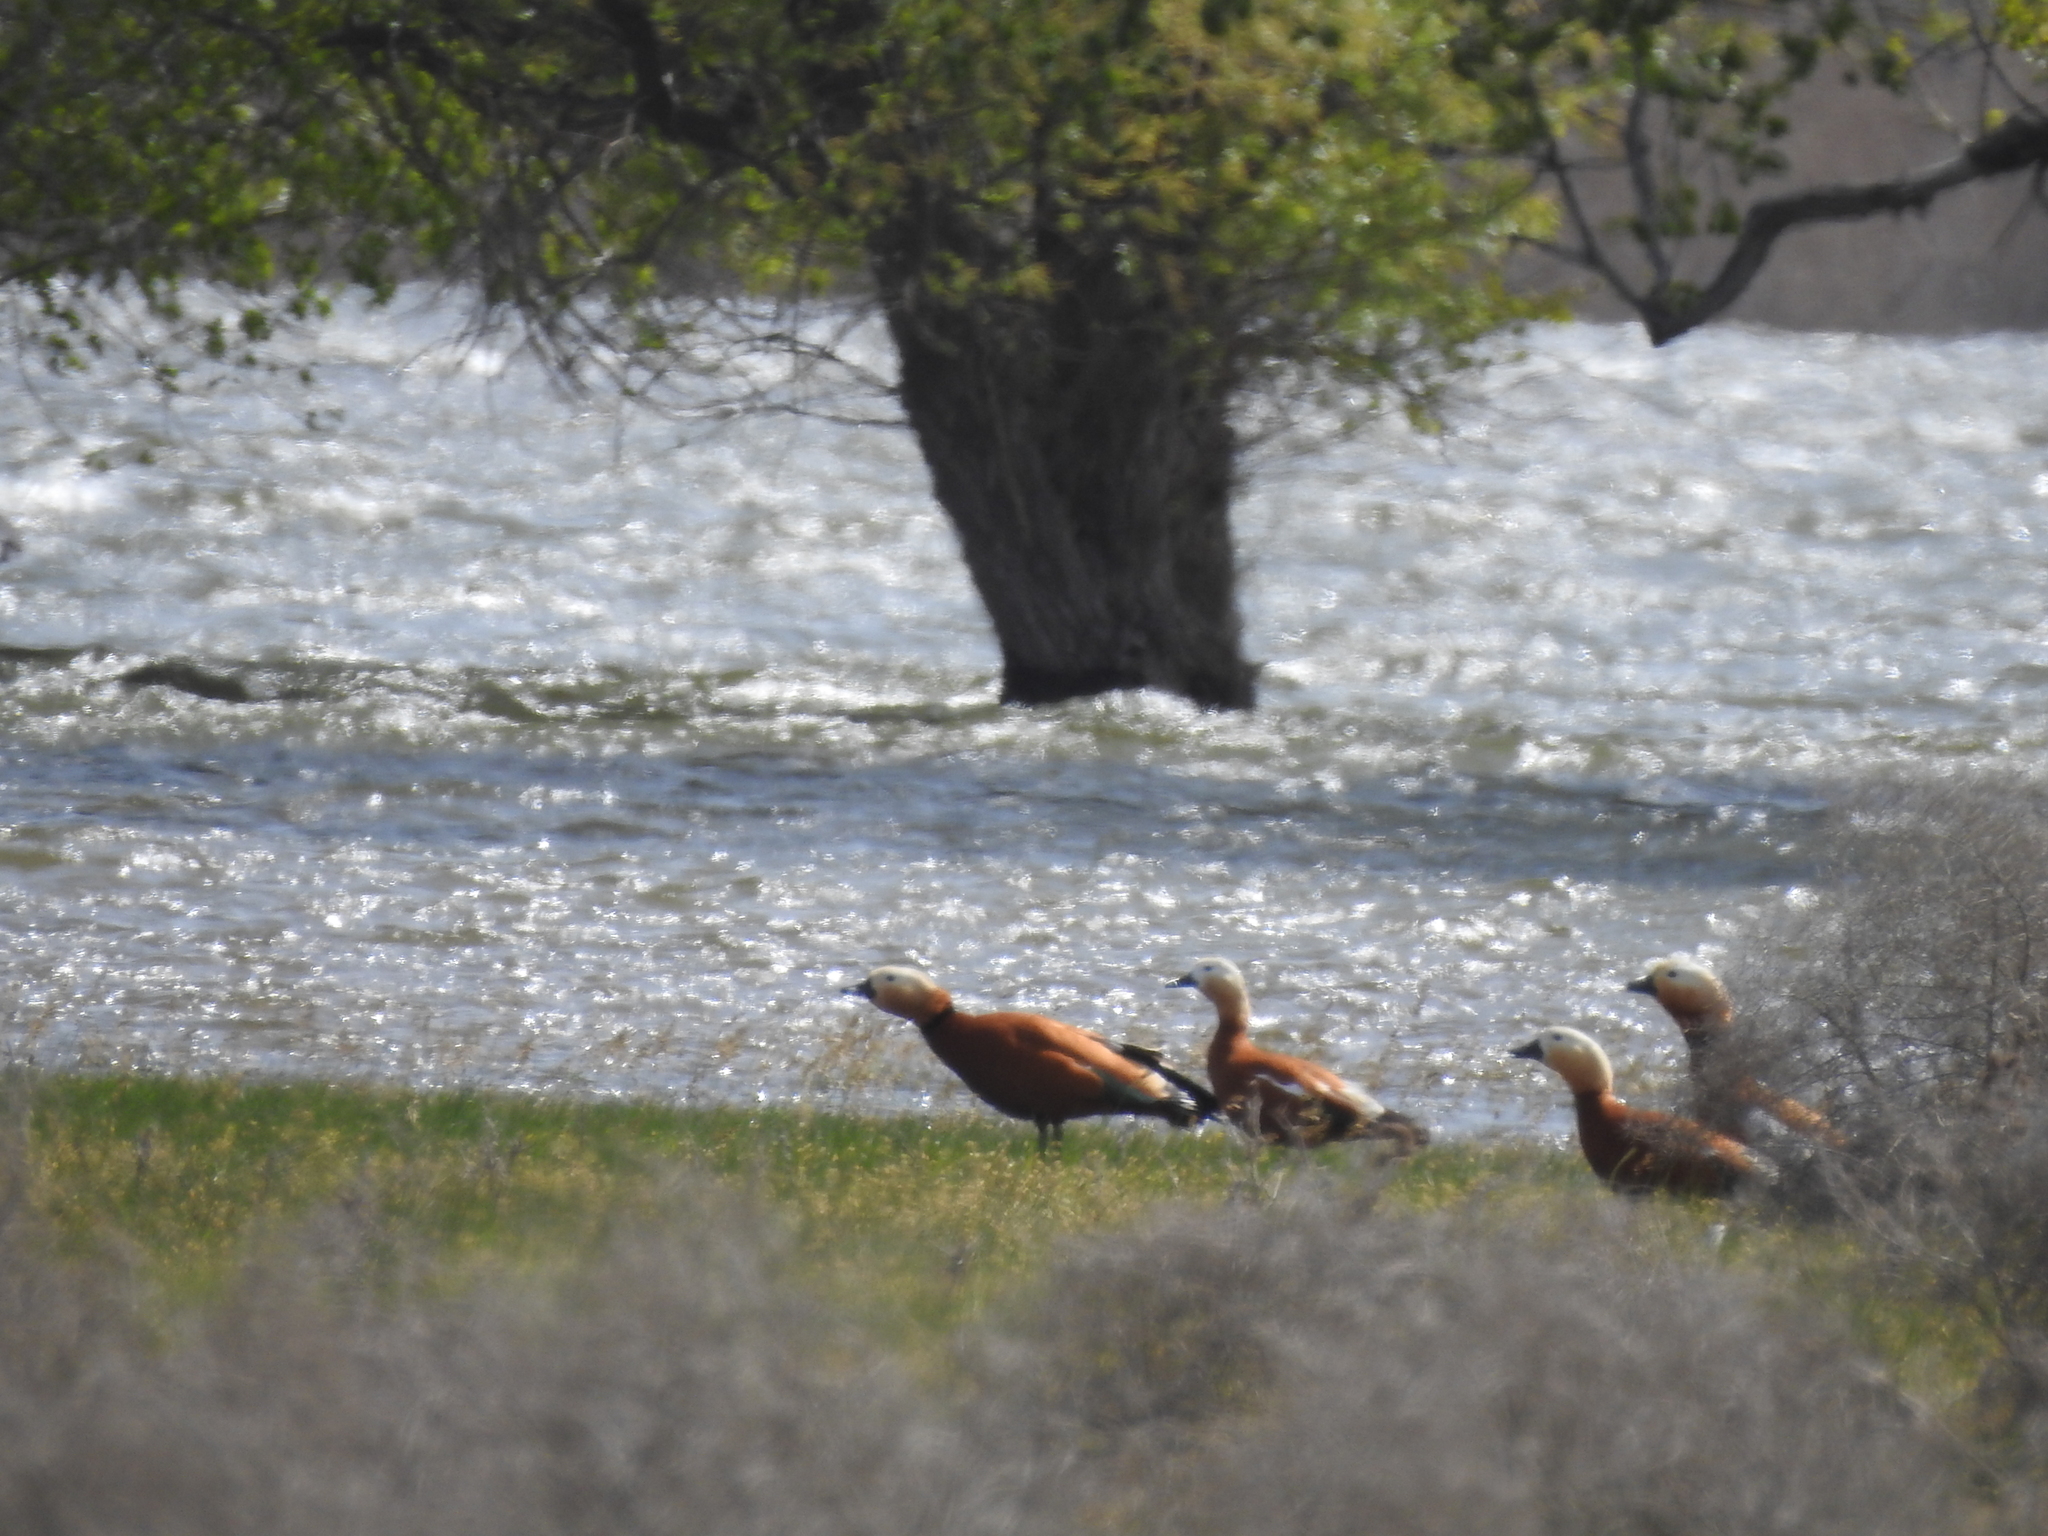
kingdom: Animalia
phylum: Chordata
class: Aves
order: Anseriformes
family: Anatidae
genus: Tadorna
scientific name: Tadorna ferruginea
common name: Ruddy shelduck
